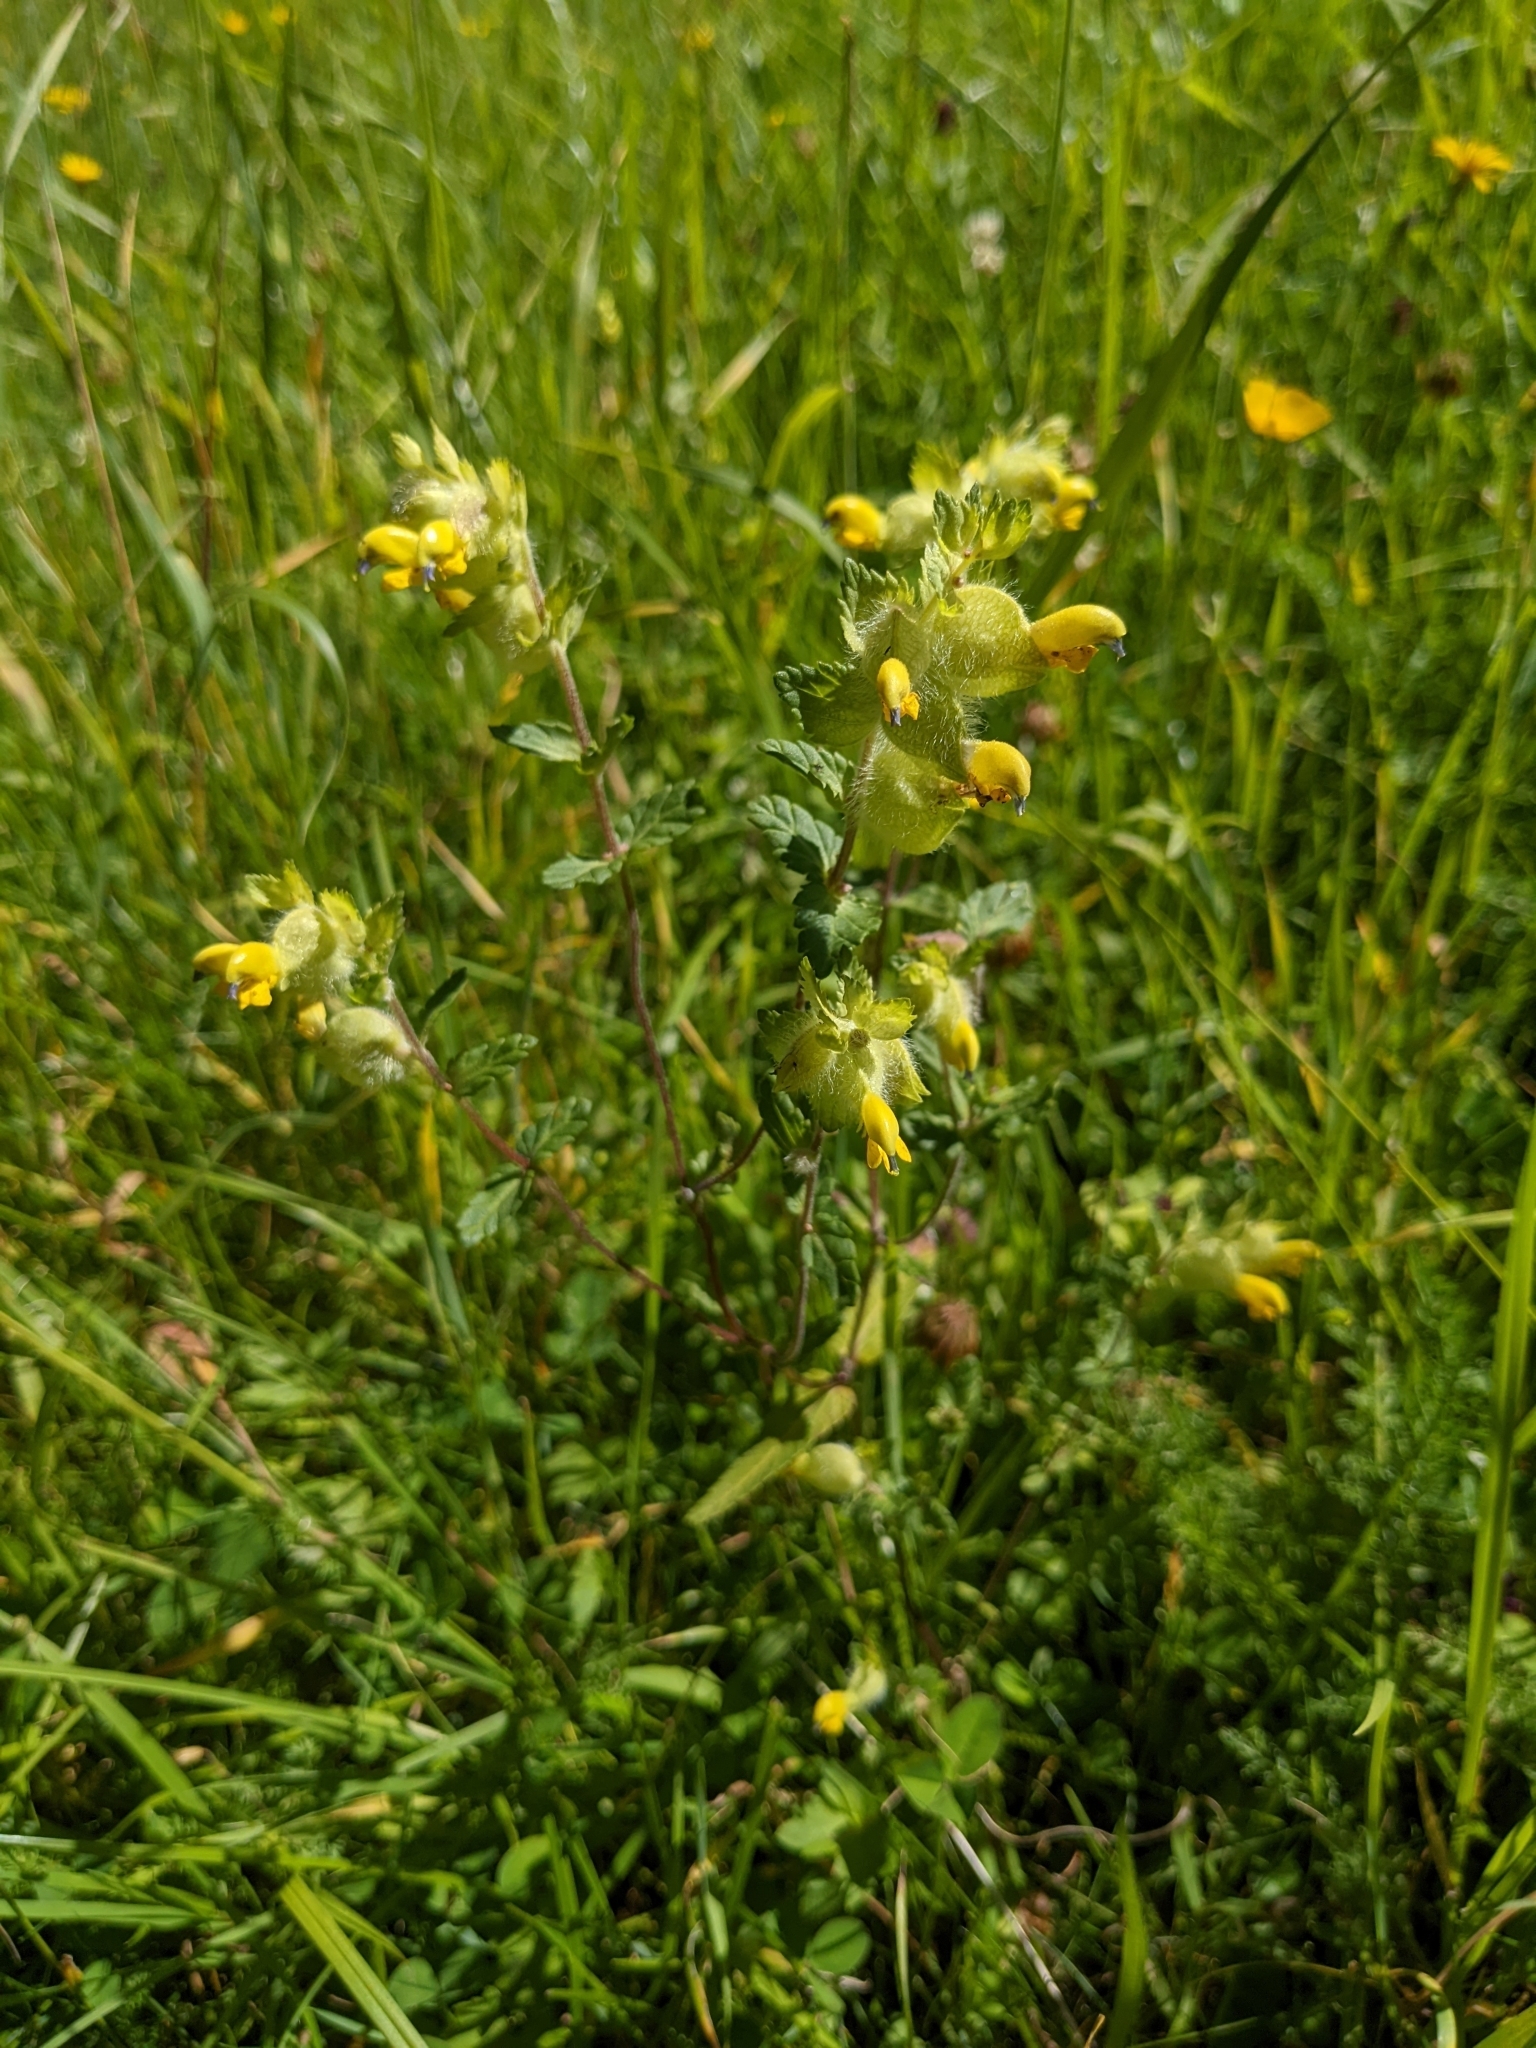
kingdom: Plantae
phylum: Tracheophyta
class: Magnoliopsida
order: Lamiales
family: Orobanchaceae
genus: Rhinanthus
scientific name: Rhinanthus alectorolophus
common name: Greater yellow-rattle
